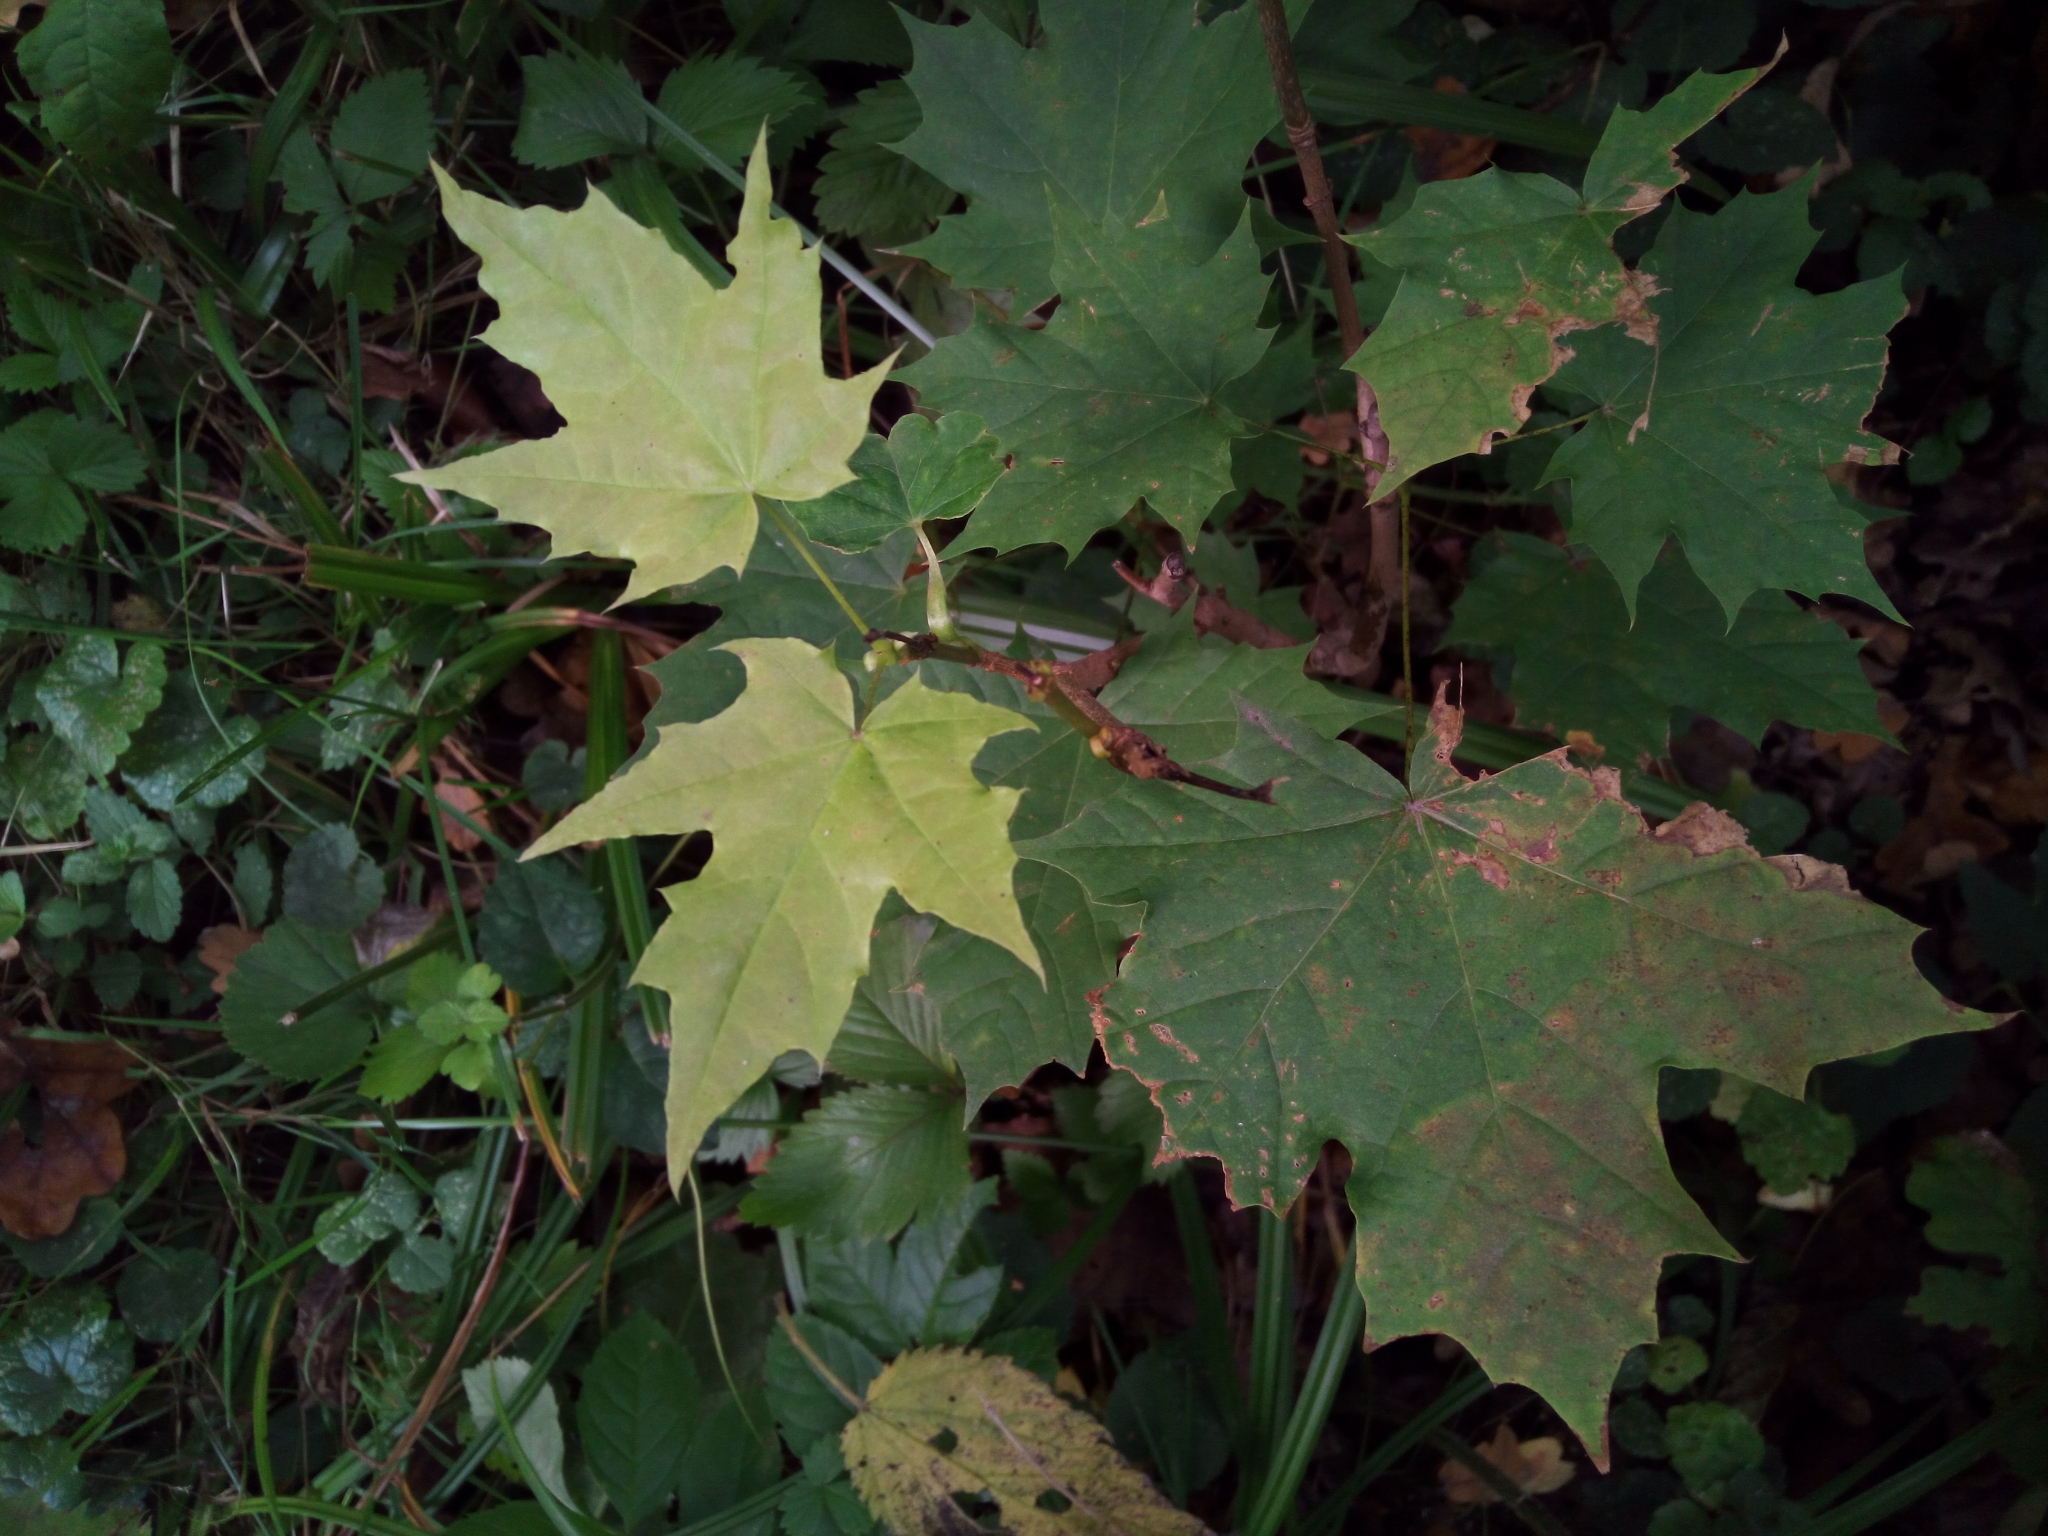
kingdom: Plantae
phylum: Tracheophyta
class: Magnoliopsida
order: Sapindales
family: Sapindaceae
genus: Acer
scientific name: Acer platanoides
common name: Norway maple
